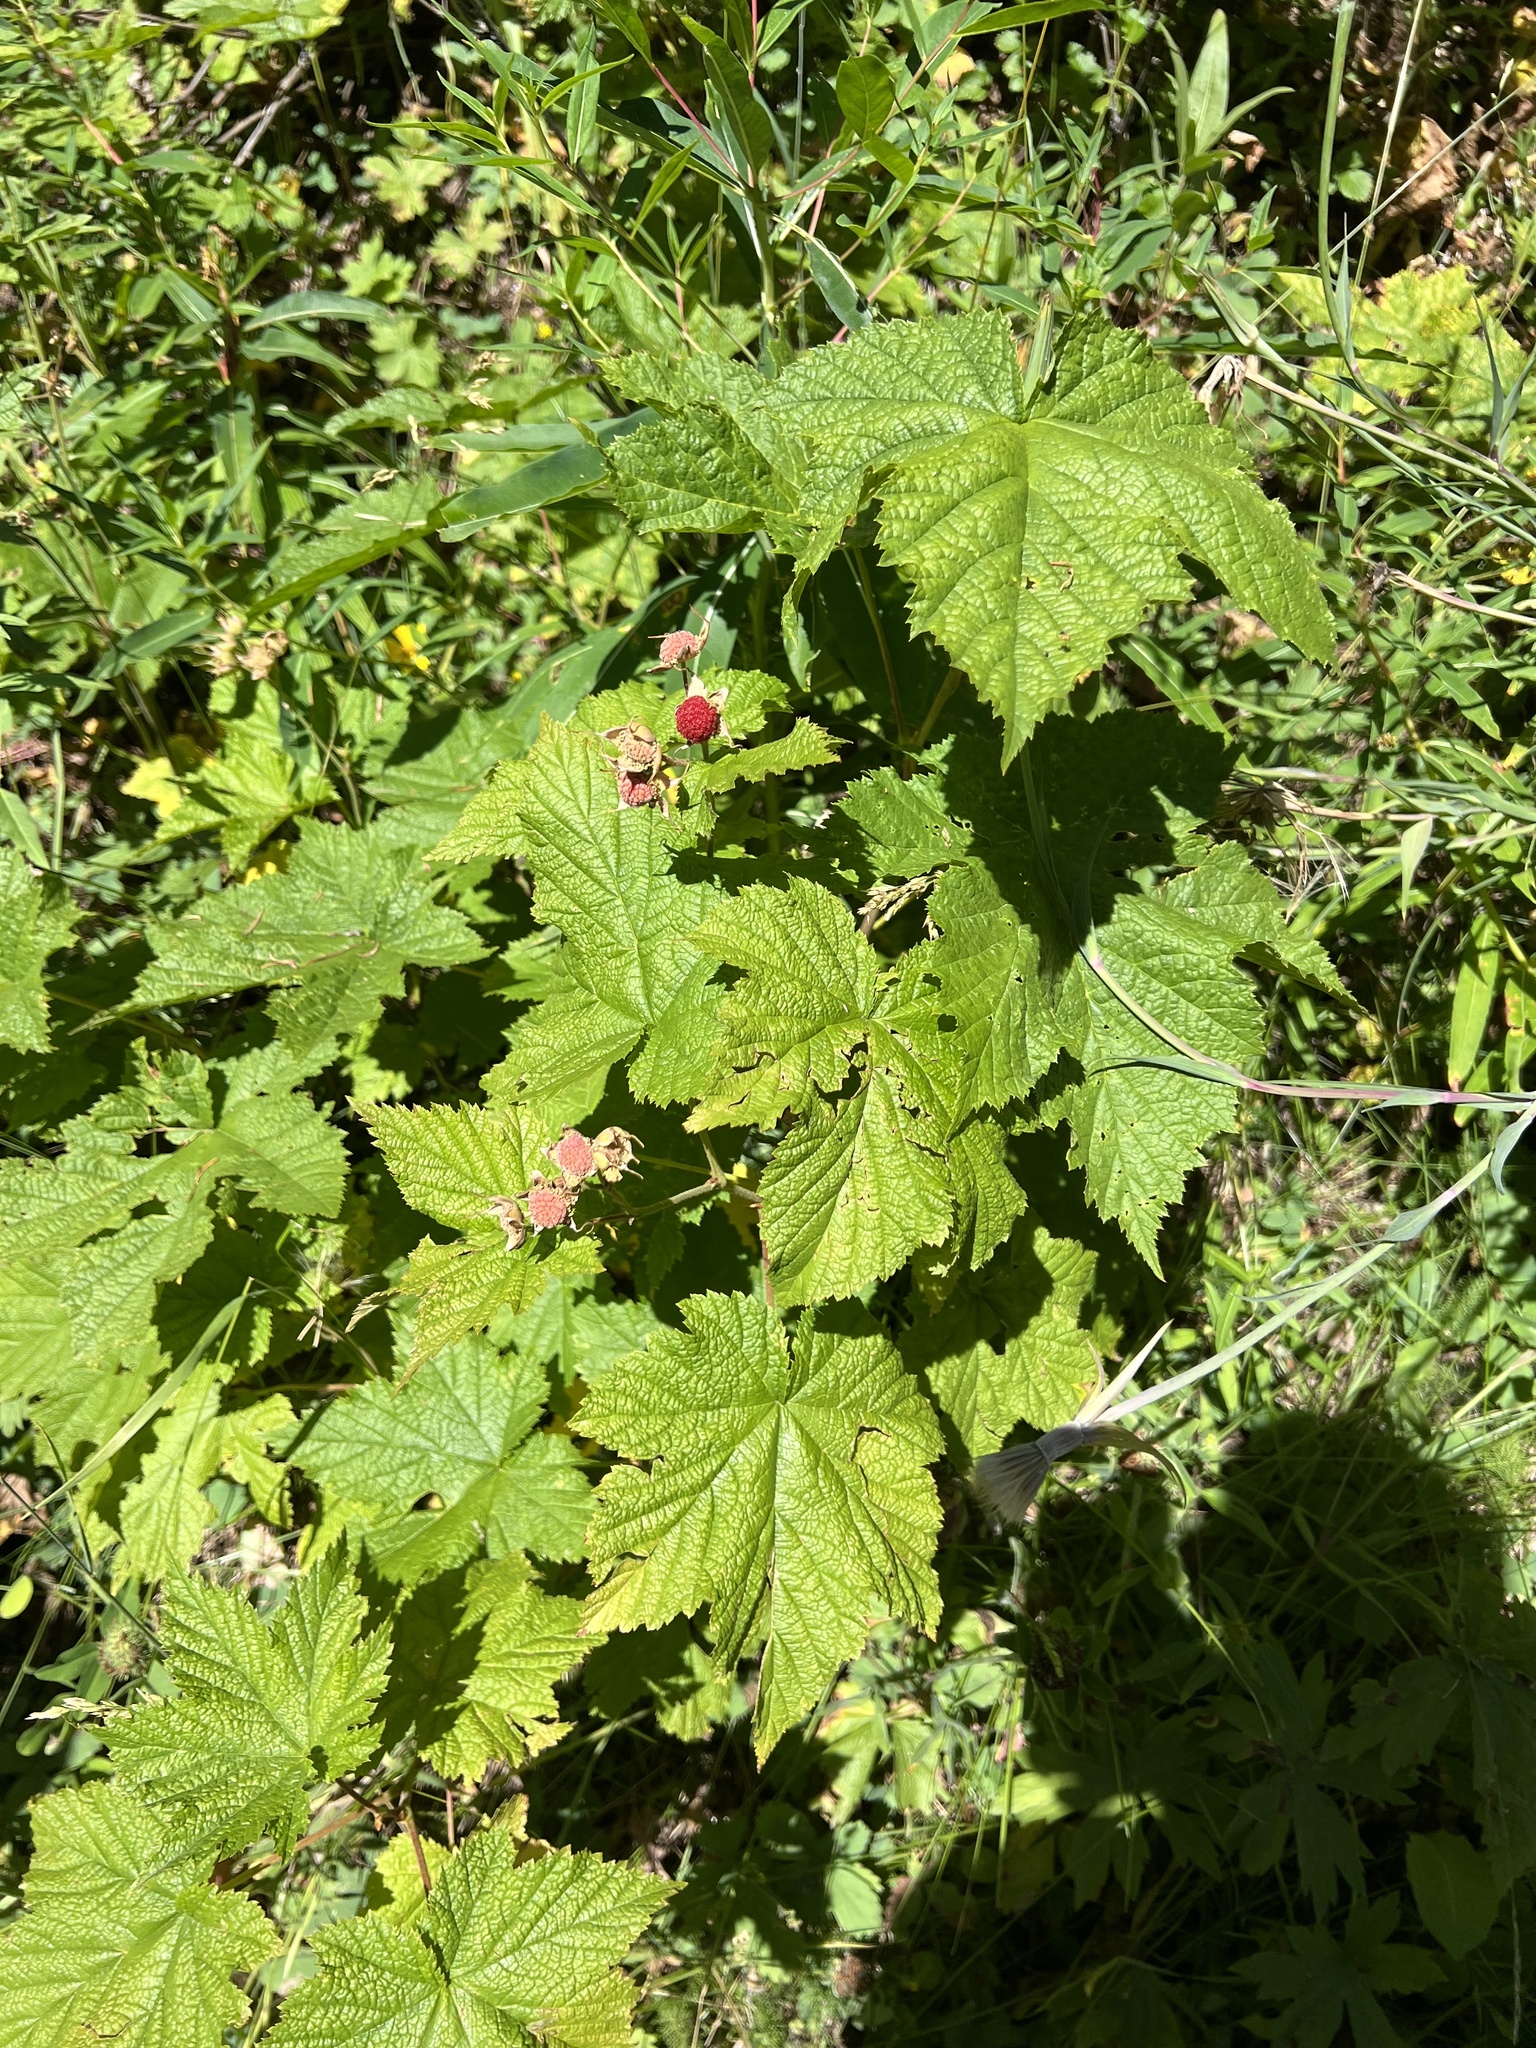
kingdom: Plantae
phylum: Tracheophyta
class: Magnoliopsida
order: Rosales
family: Rosaceae
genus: Rubus
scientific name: Rubus parviflorus
